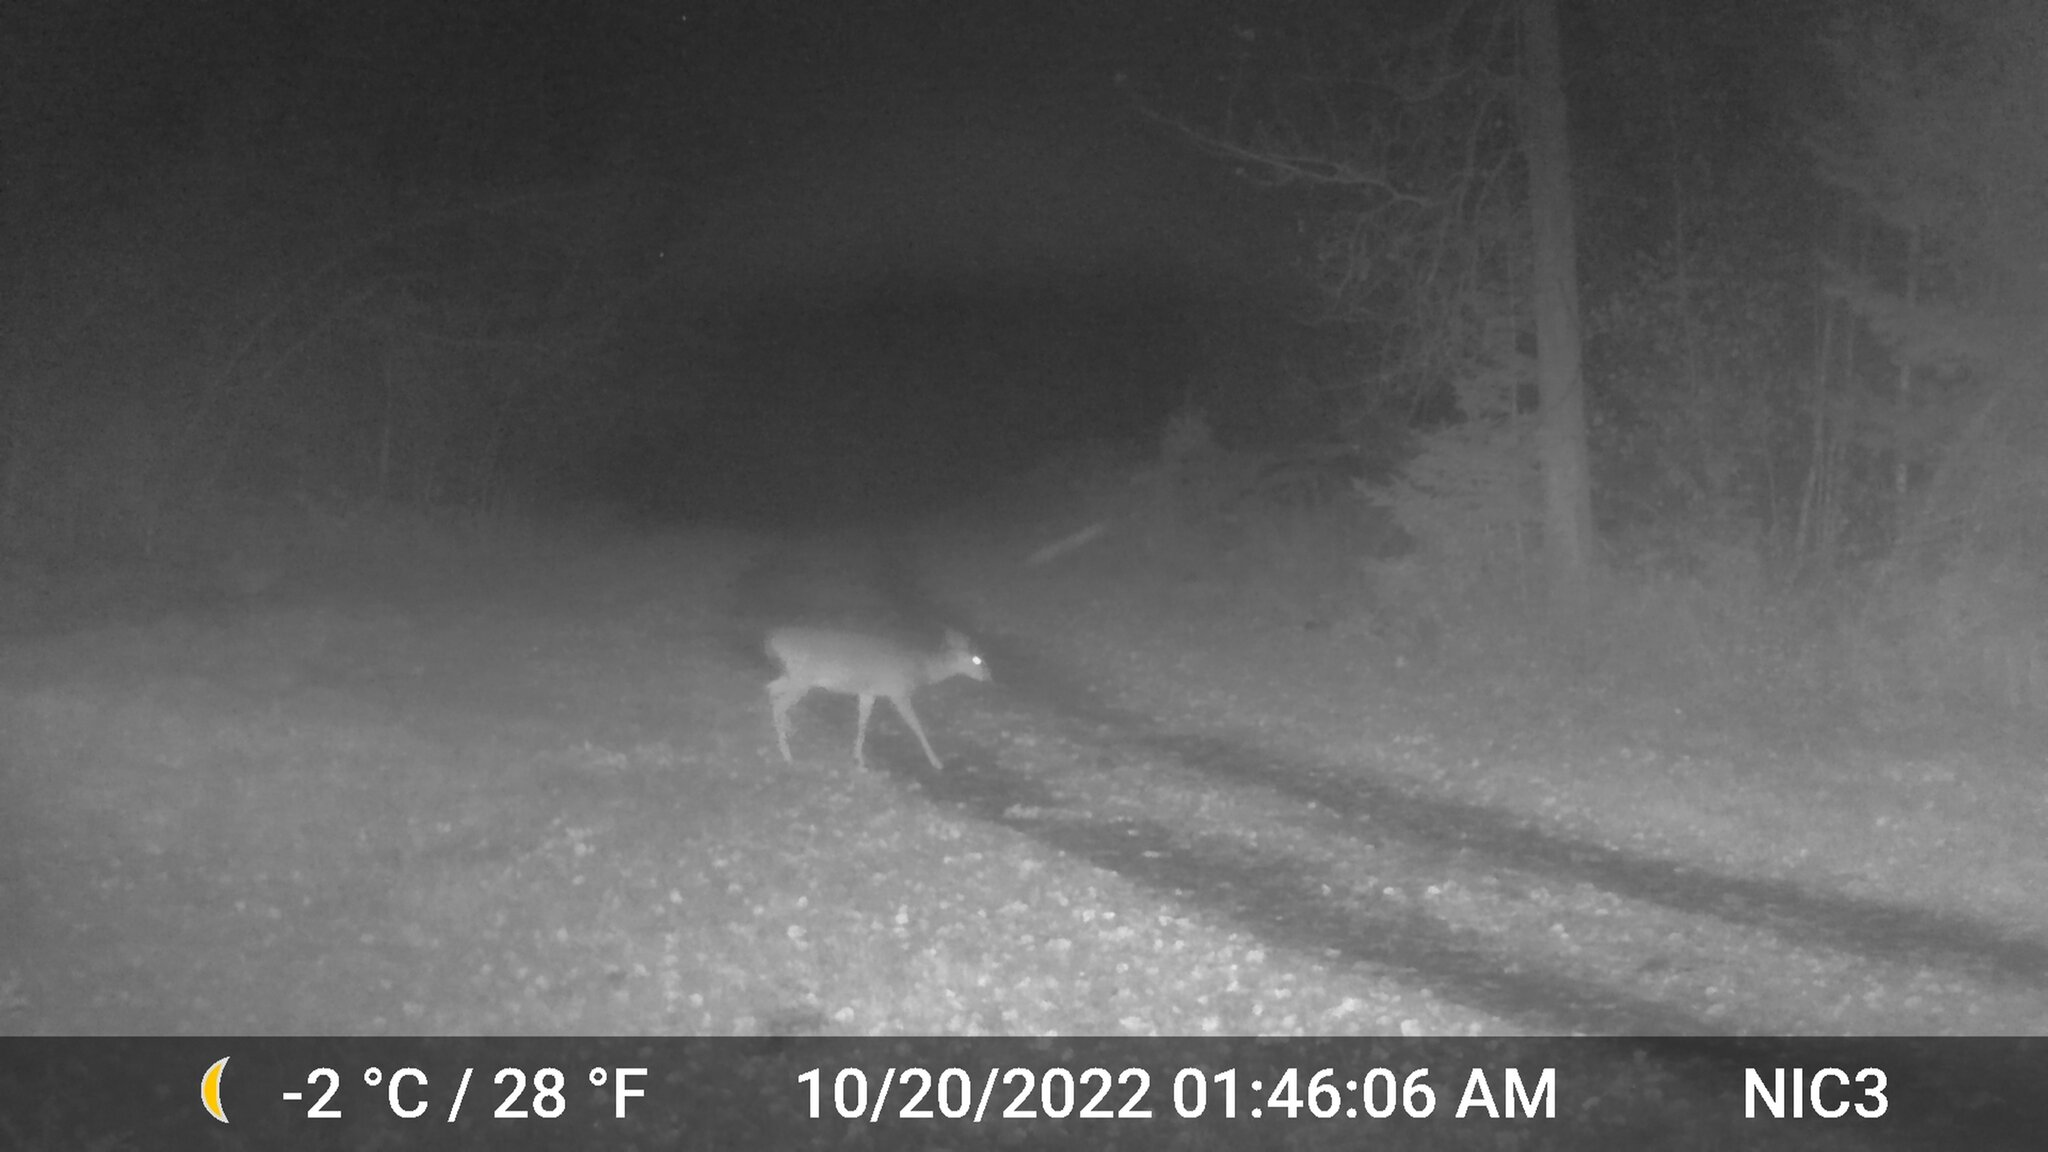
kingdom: Animalia
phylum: Chordata
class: Mammalia
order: Artiodactyla
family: Cervidae
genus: Odocoileus
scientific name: Odocoileus virginianus
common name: White-tailed deer
